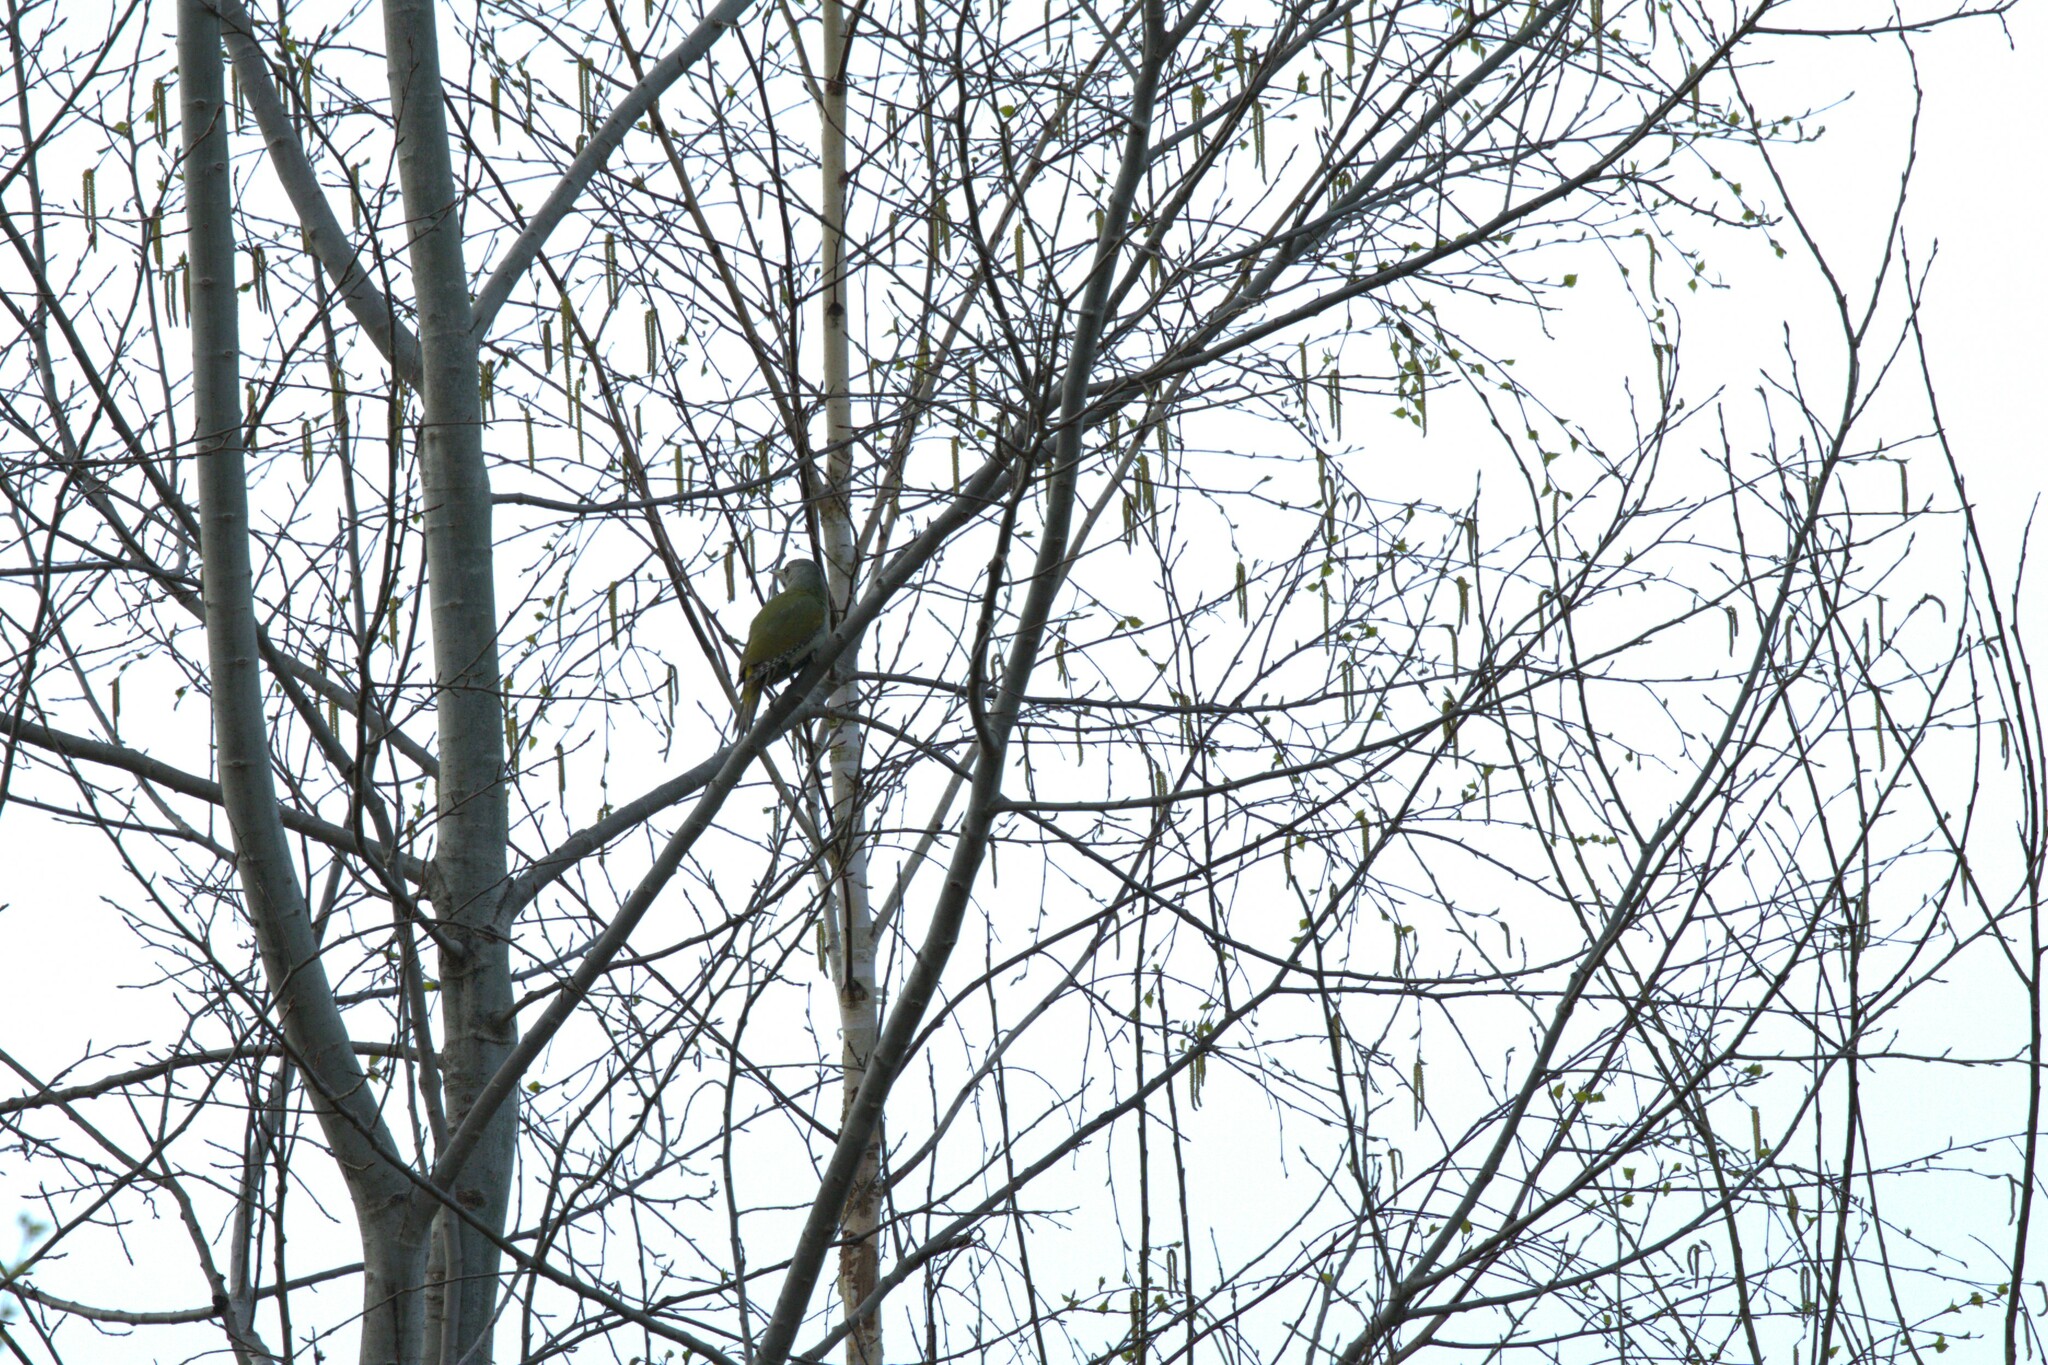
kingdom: Animalia
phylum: Chordata
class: Aves
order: Piciformes
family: Picidae
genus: Picus
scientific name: Picus canus
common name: Grey-headed woodpecker
